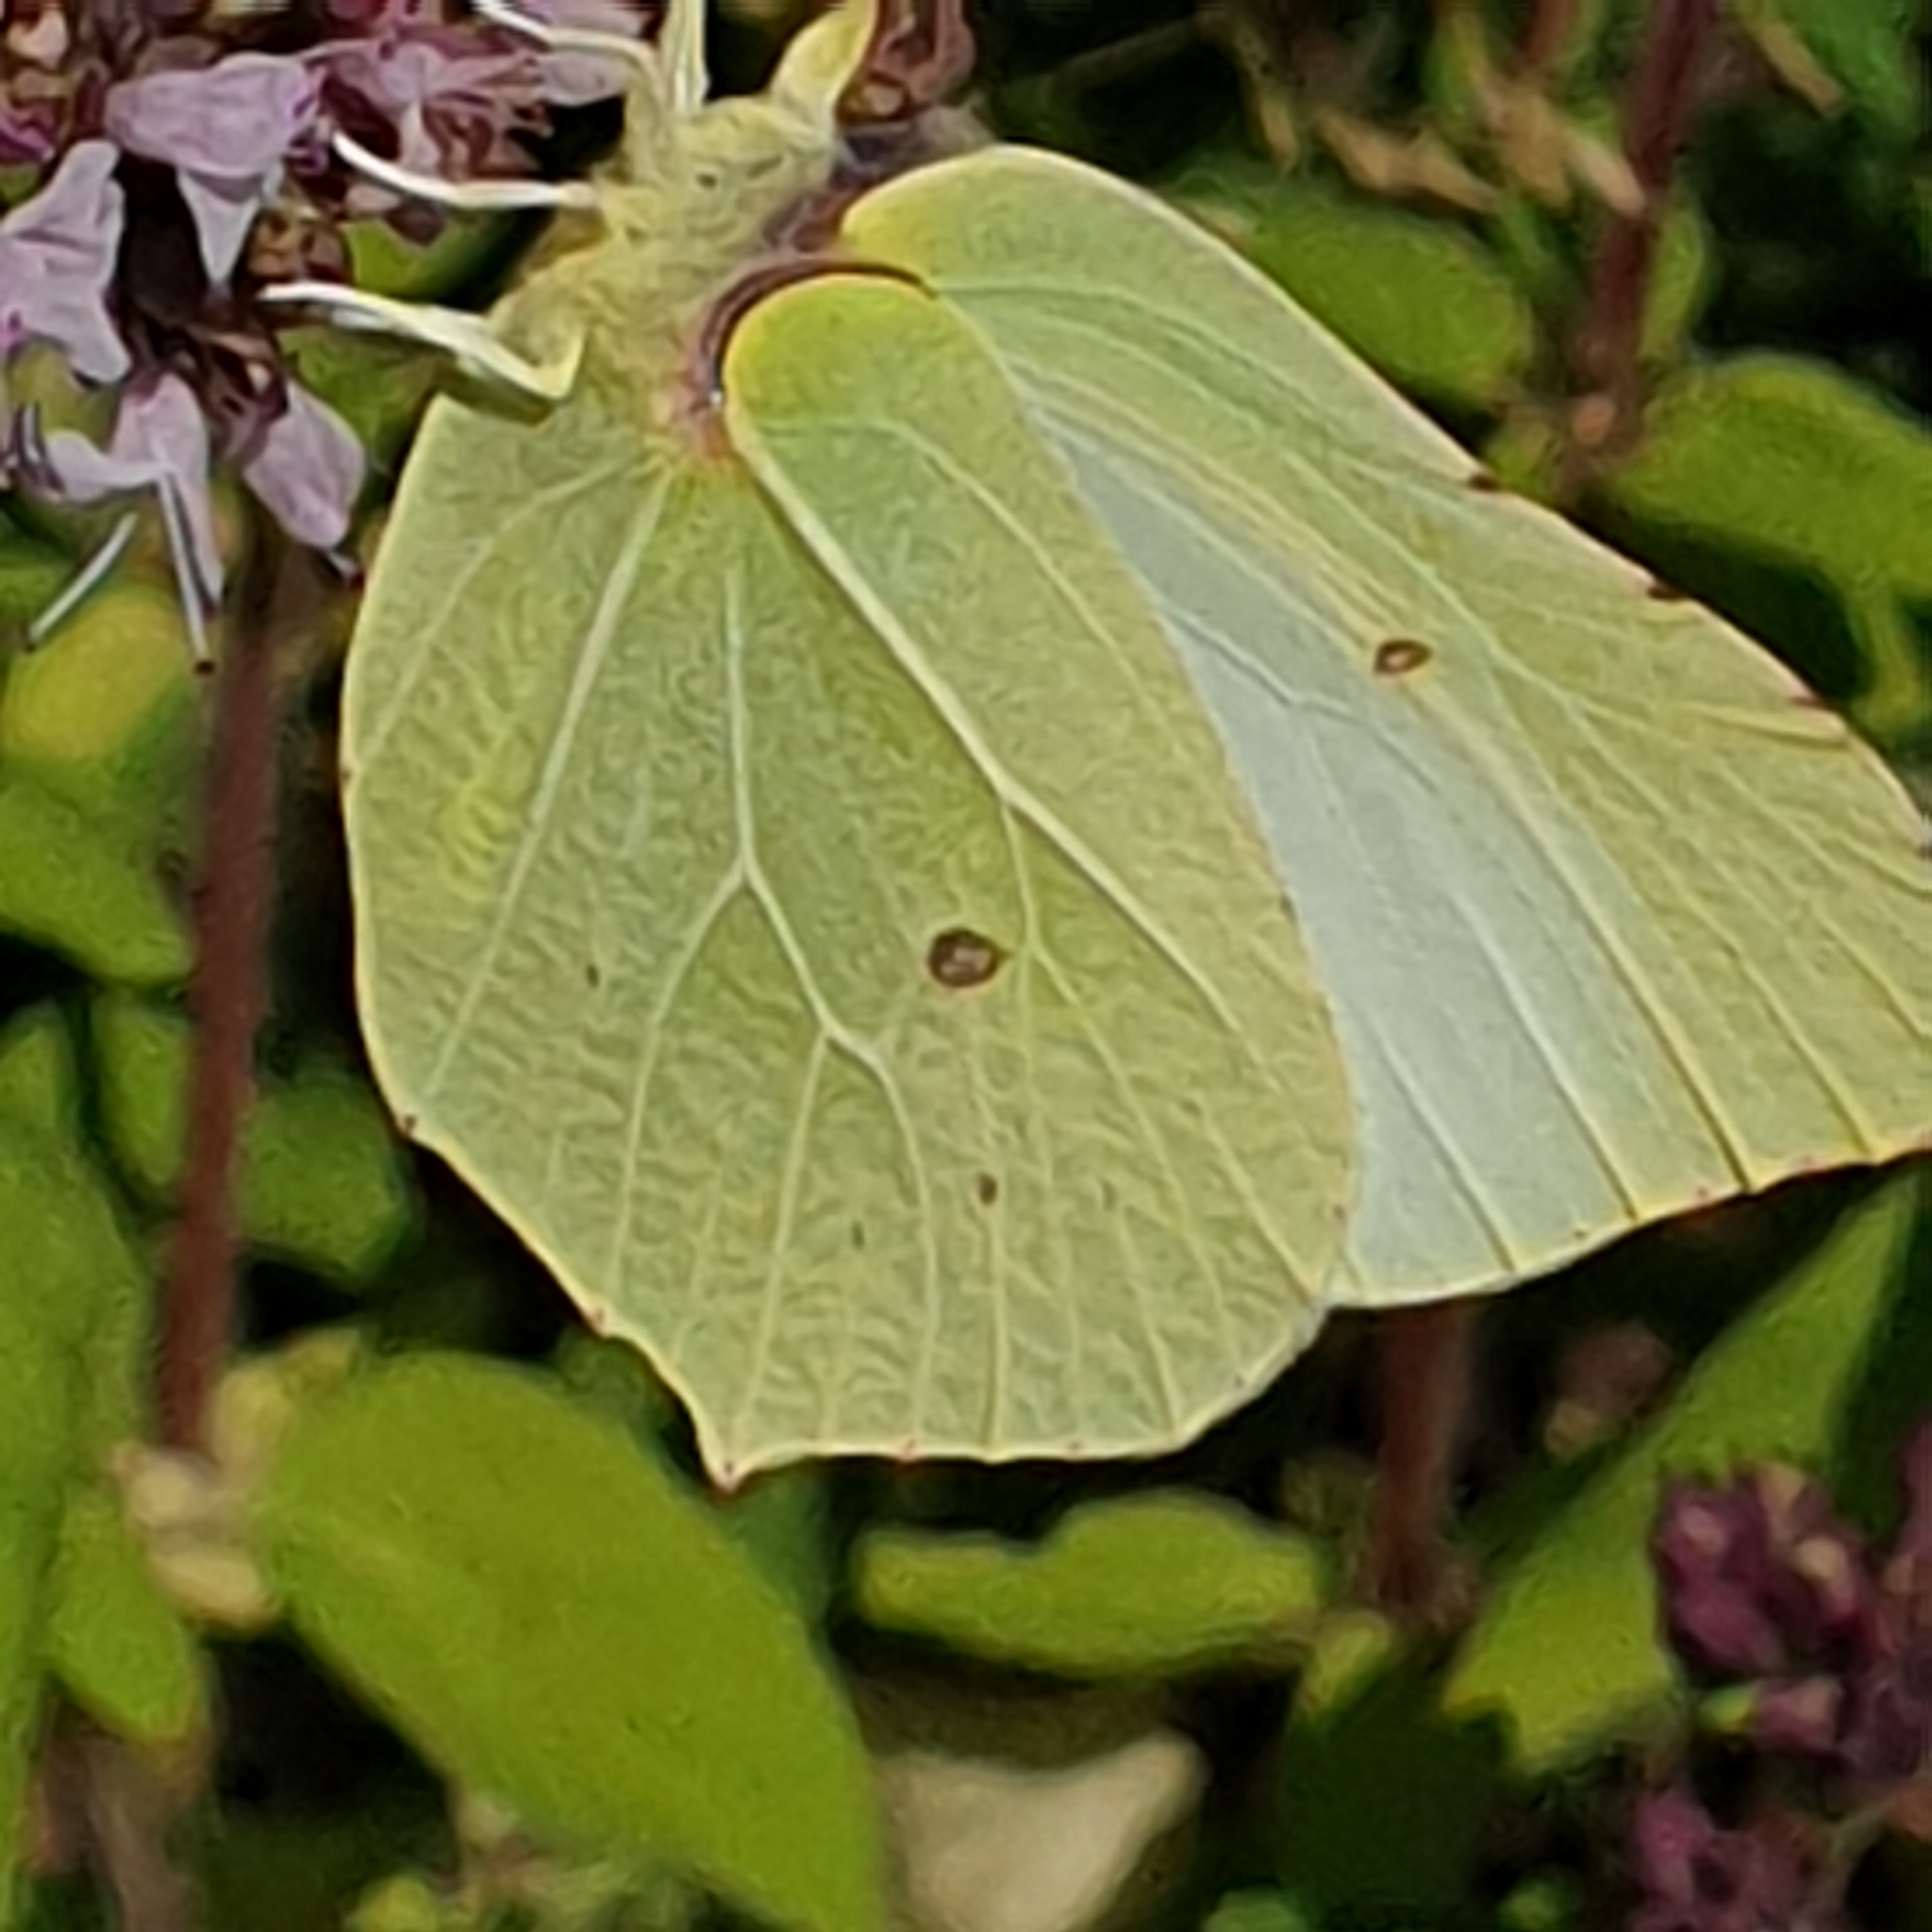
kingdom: Animalia
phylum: Arthropoda
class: Insecta
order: Lepidoptera
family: Pieridae
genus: Gonepteryx
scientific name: Gonepteryx rhamni
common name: Brimstone
